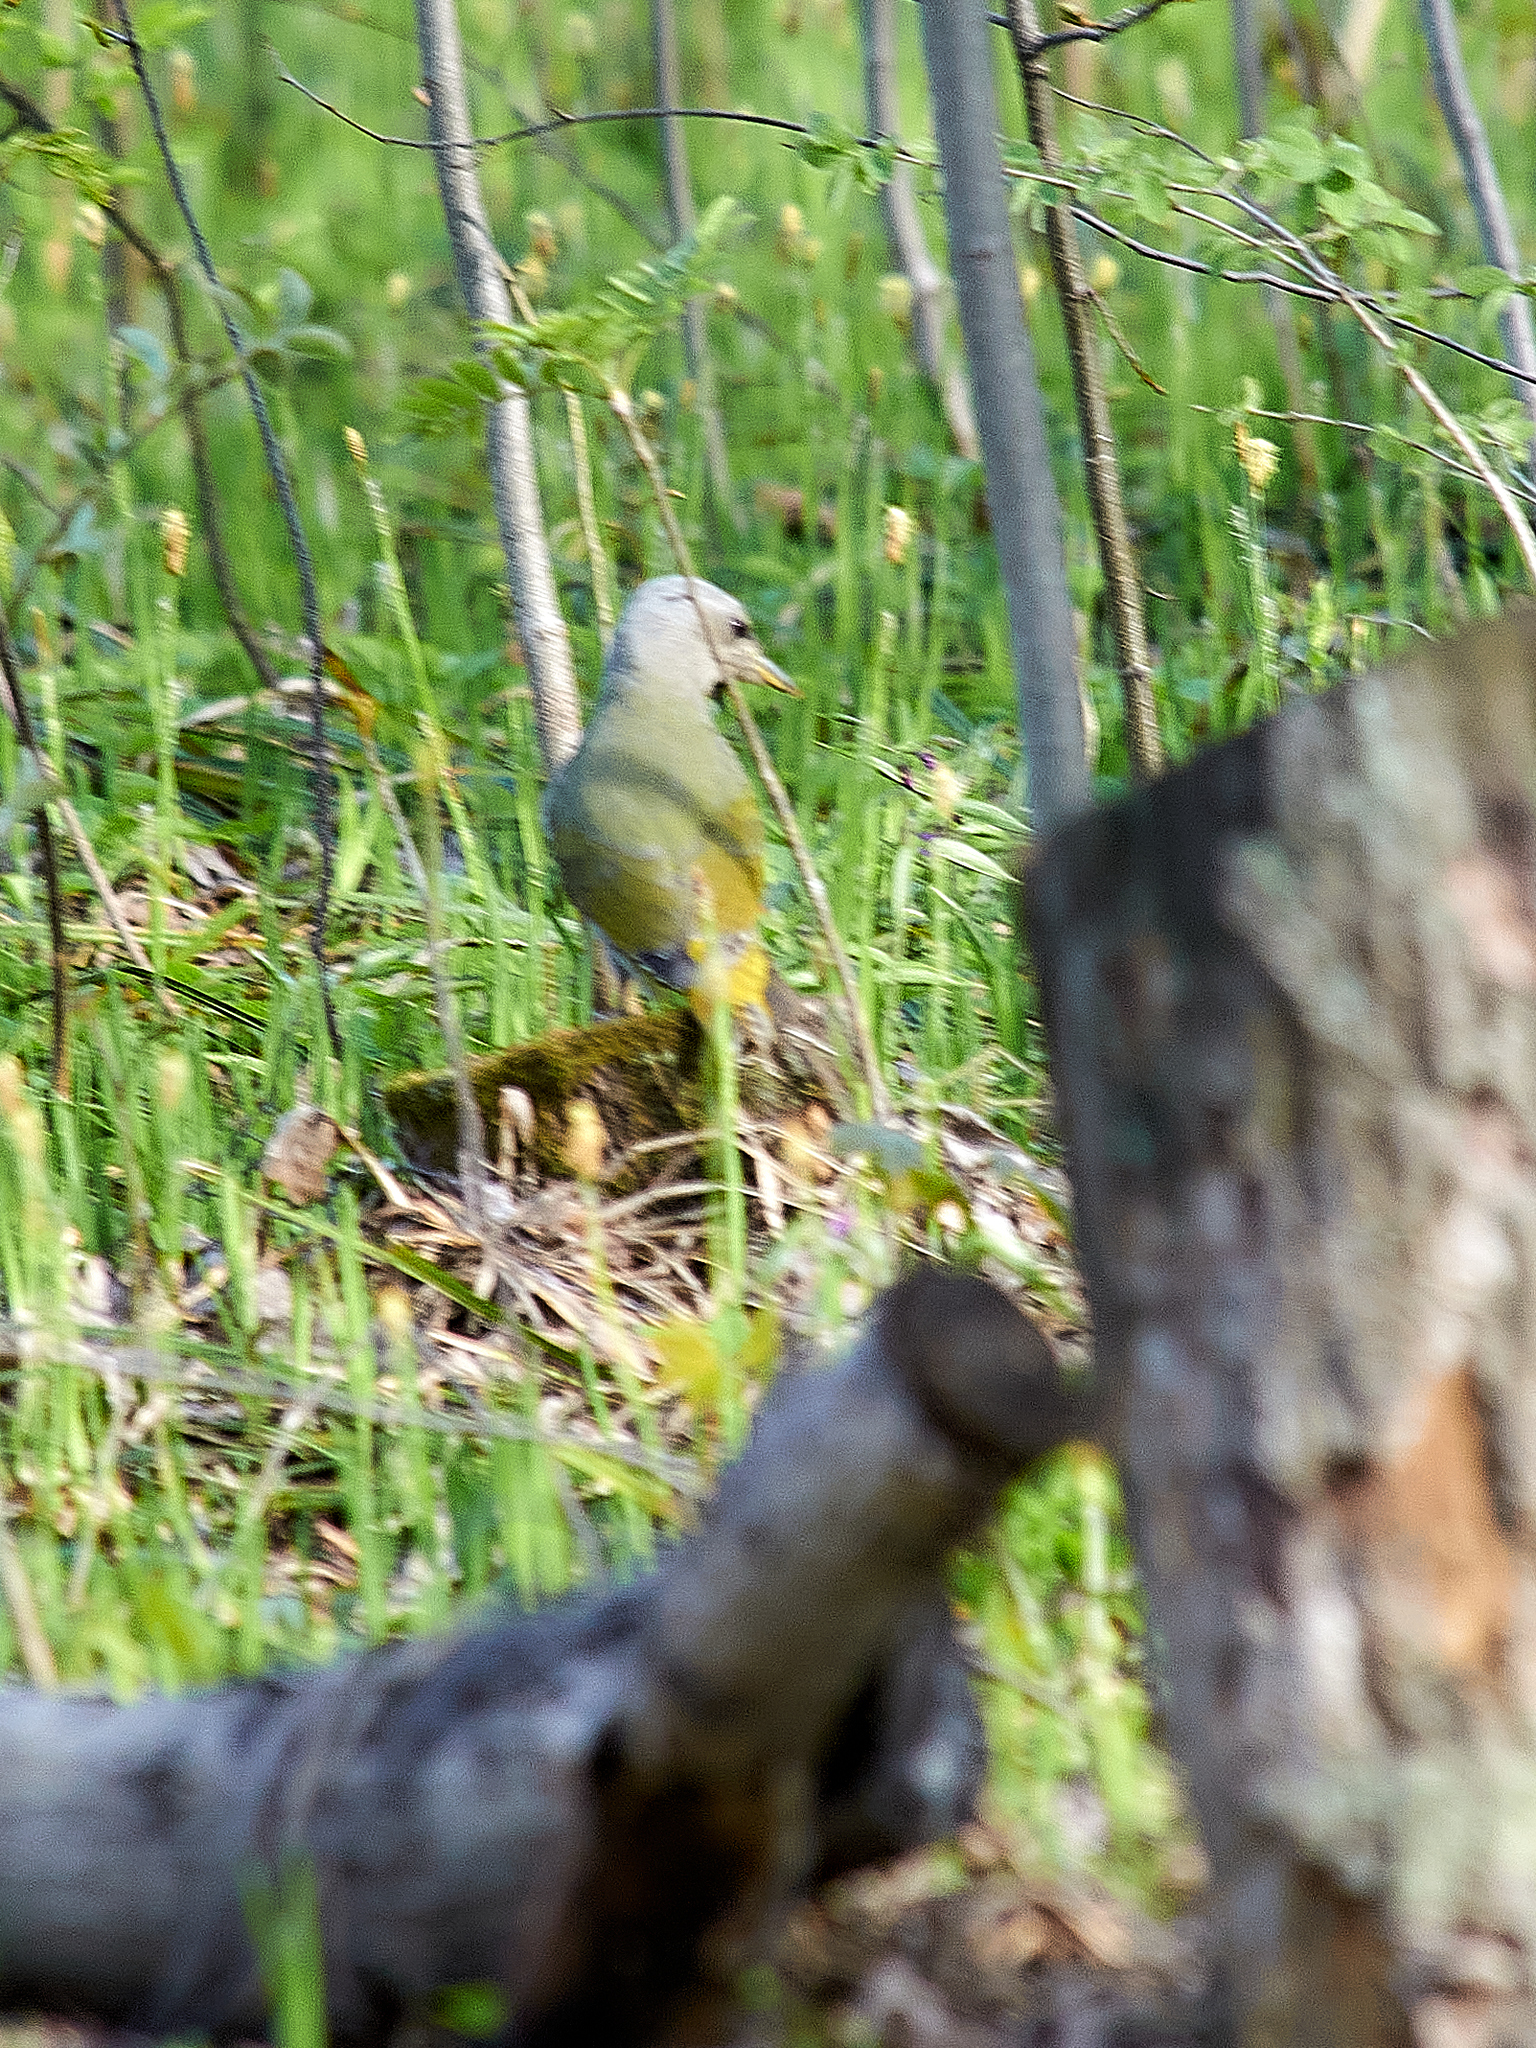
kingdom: Animalia
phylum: Chordata
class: Aves
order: Piciformes
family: Picidae
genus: Picus
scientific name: Picus canus
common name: Grey-headed woodpecker
